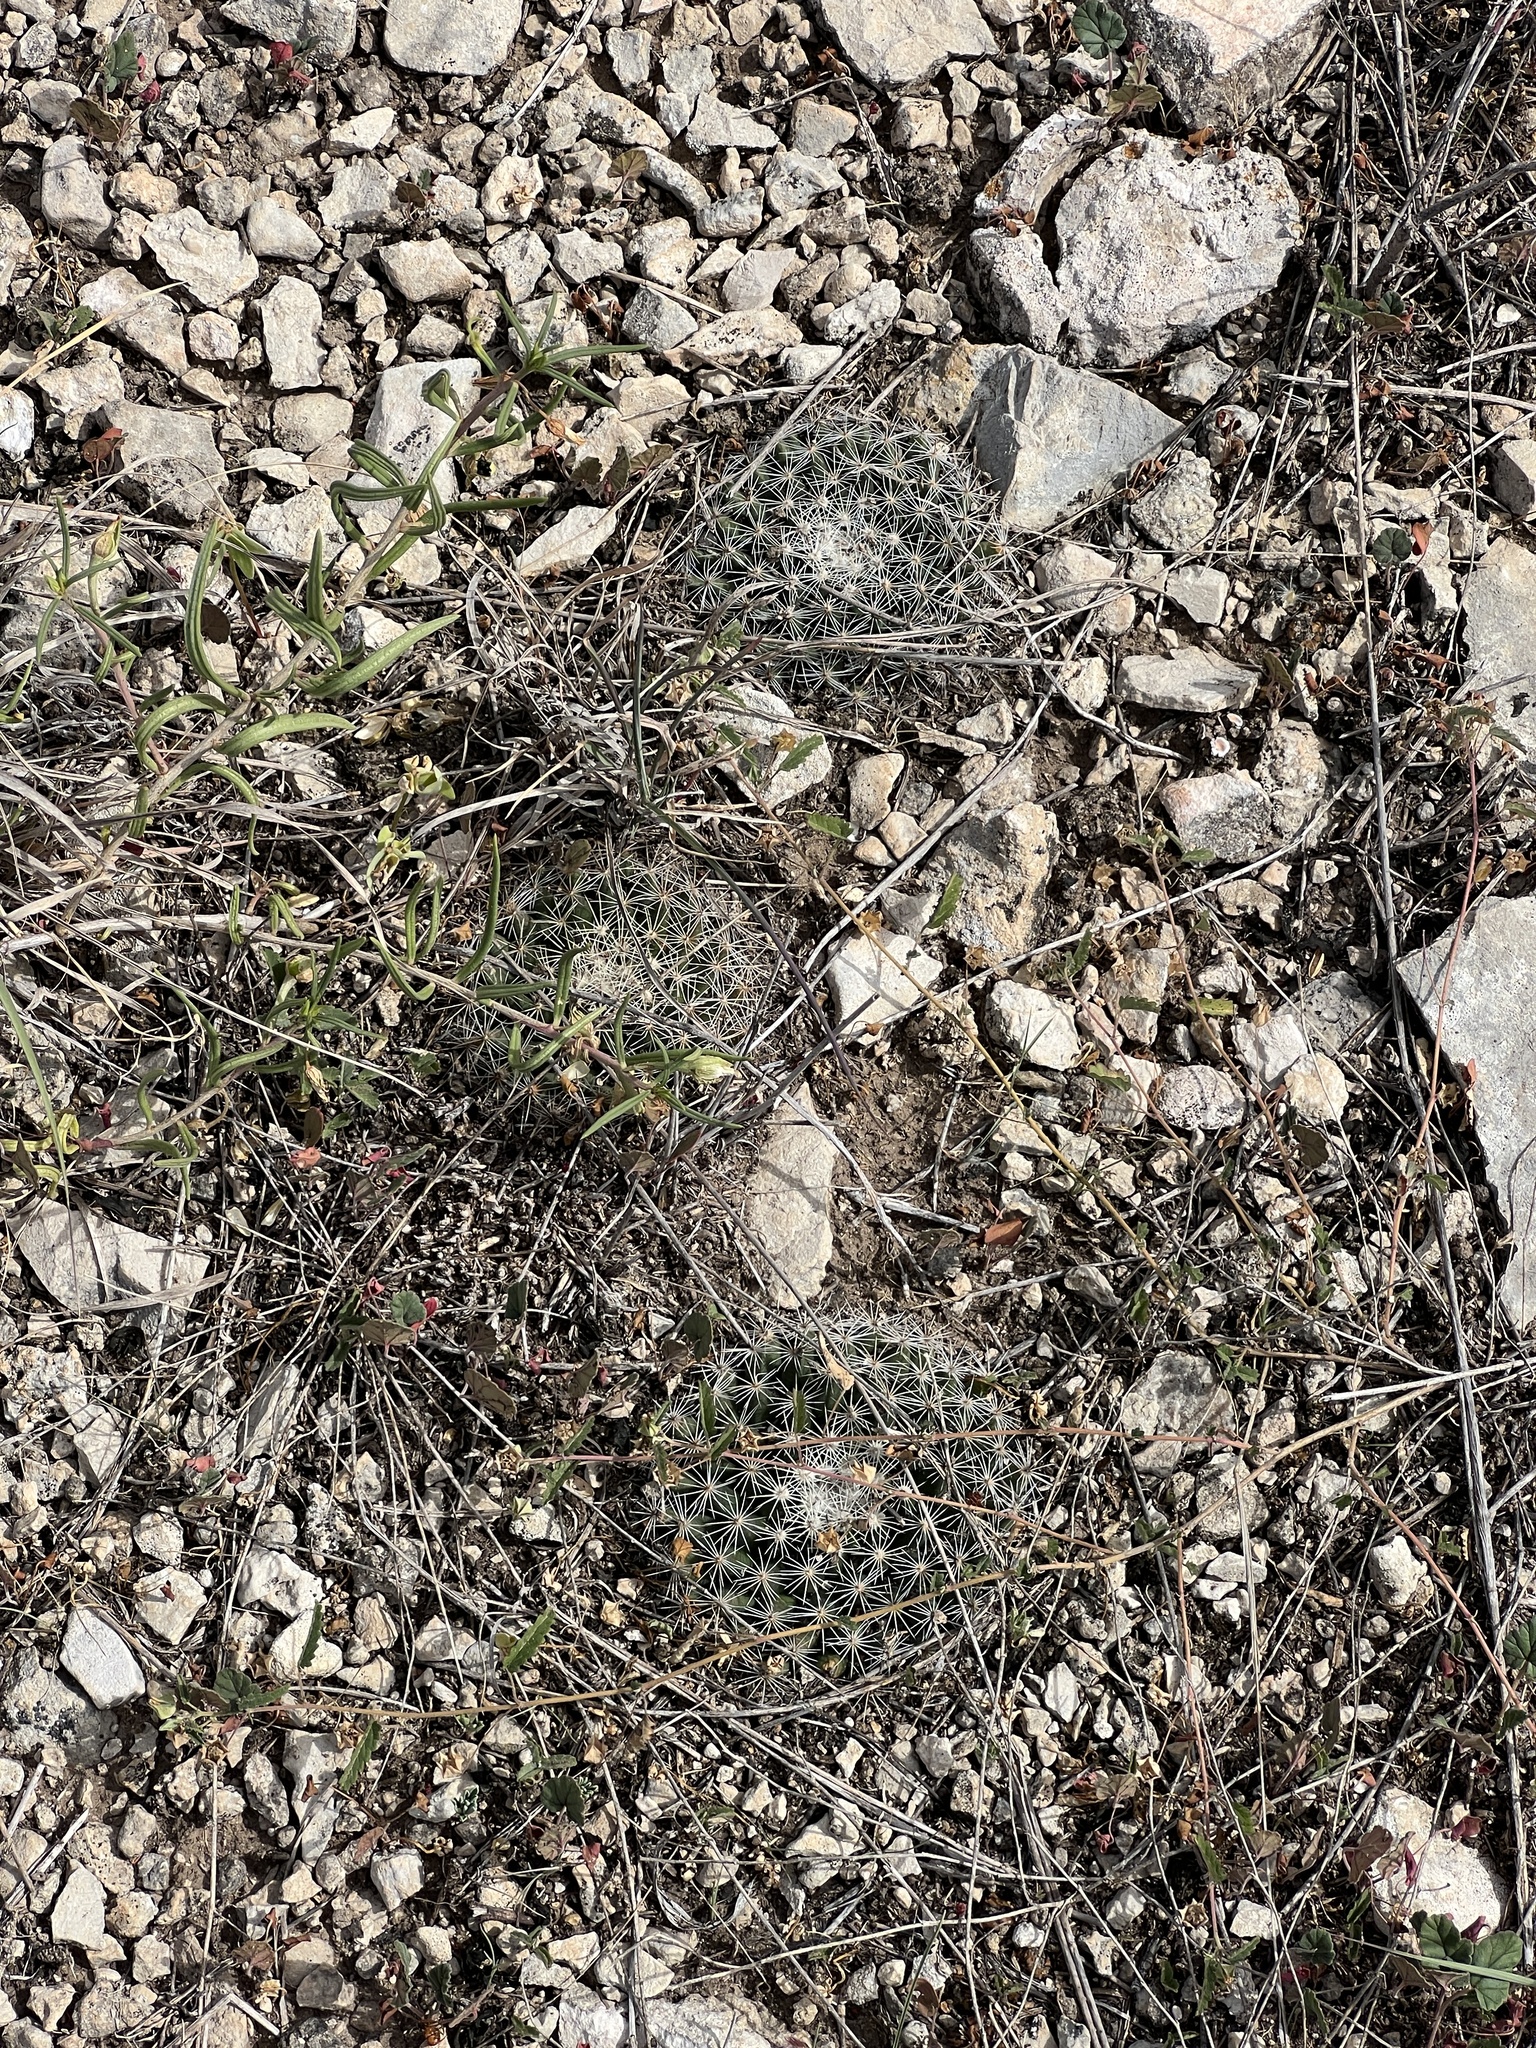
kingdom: Plantae
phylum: Tracheophyta
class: Magnoliopsida
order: Caryophyllales
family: Cactaceae
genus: Mammillaria
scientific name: Mammillaria heyderi
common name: Little nipple cactus
